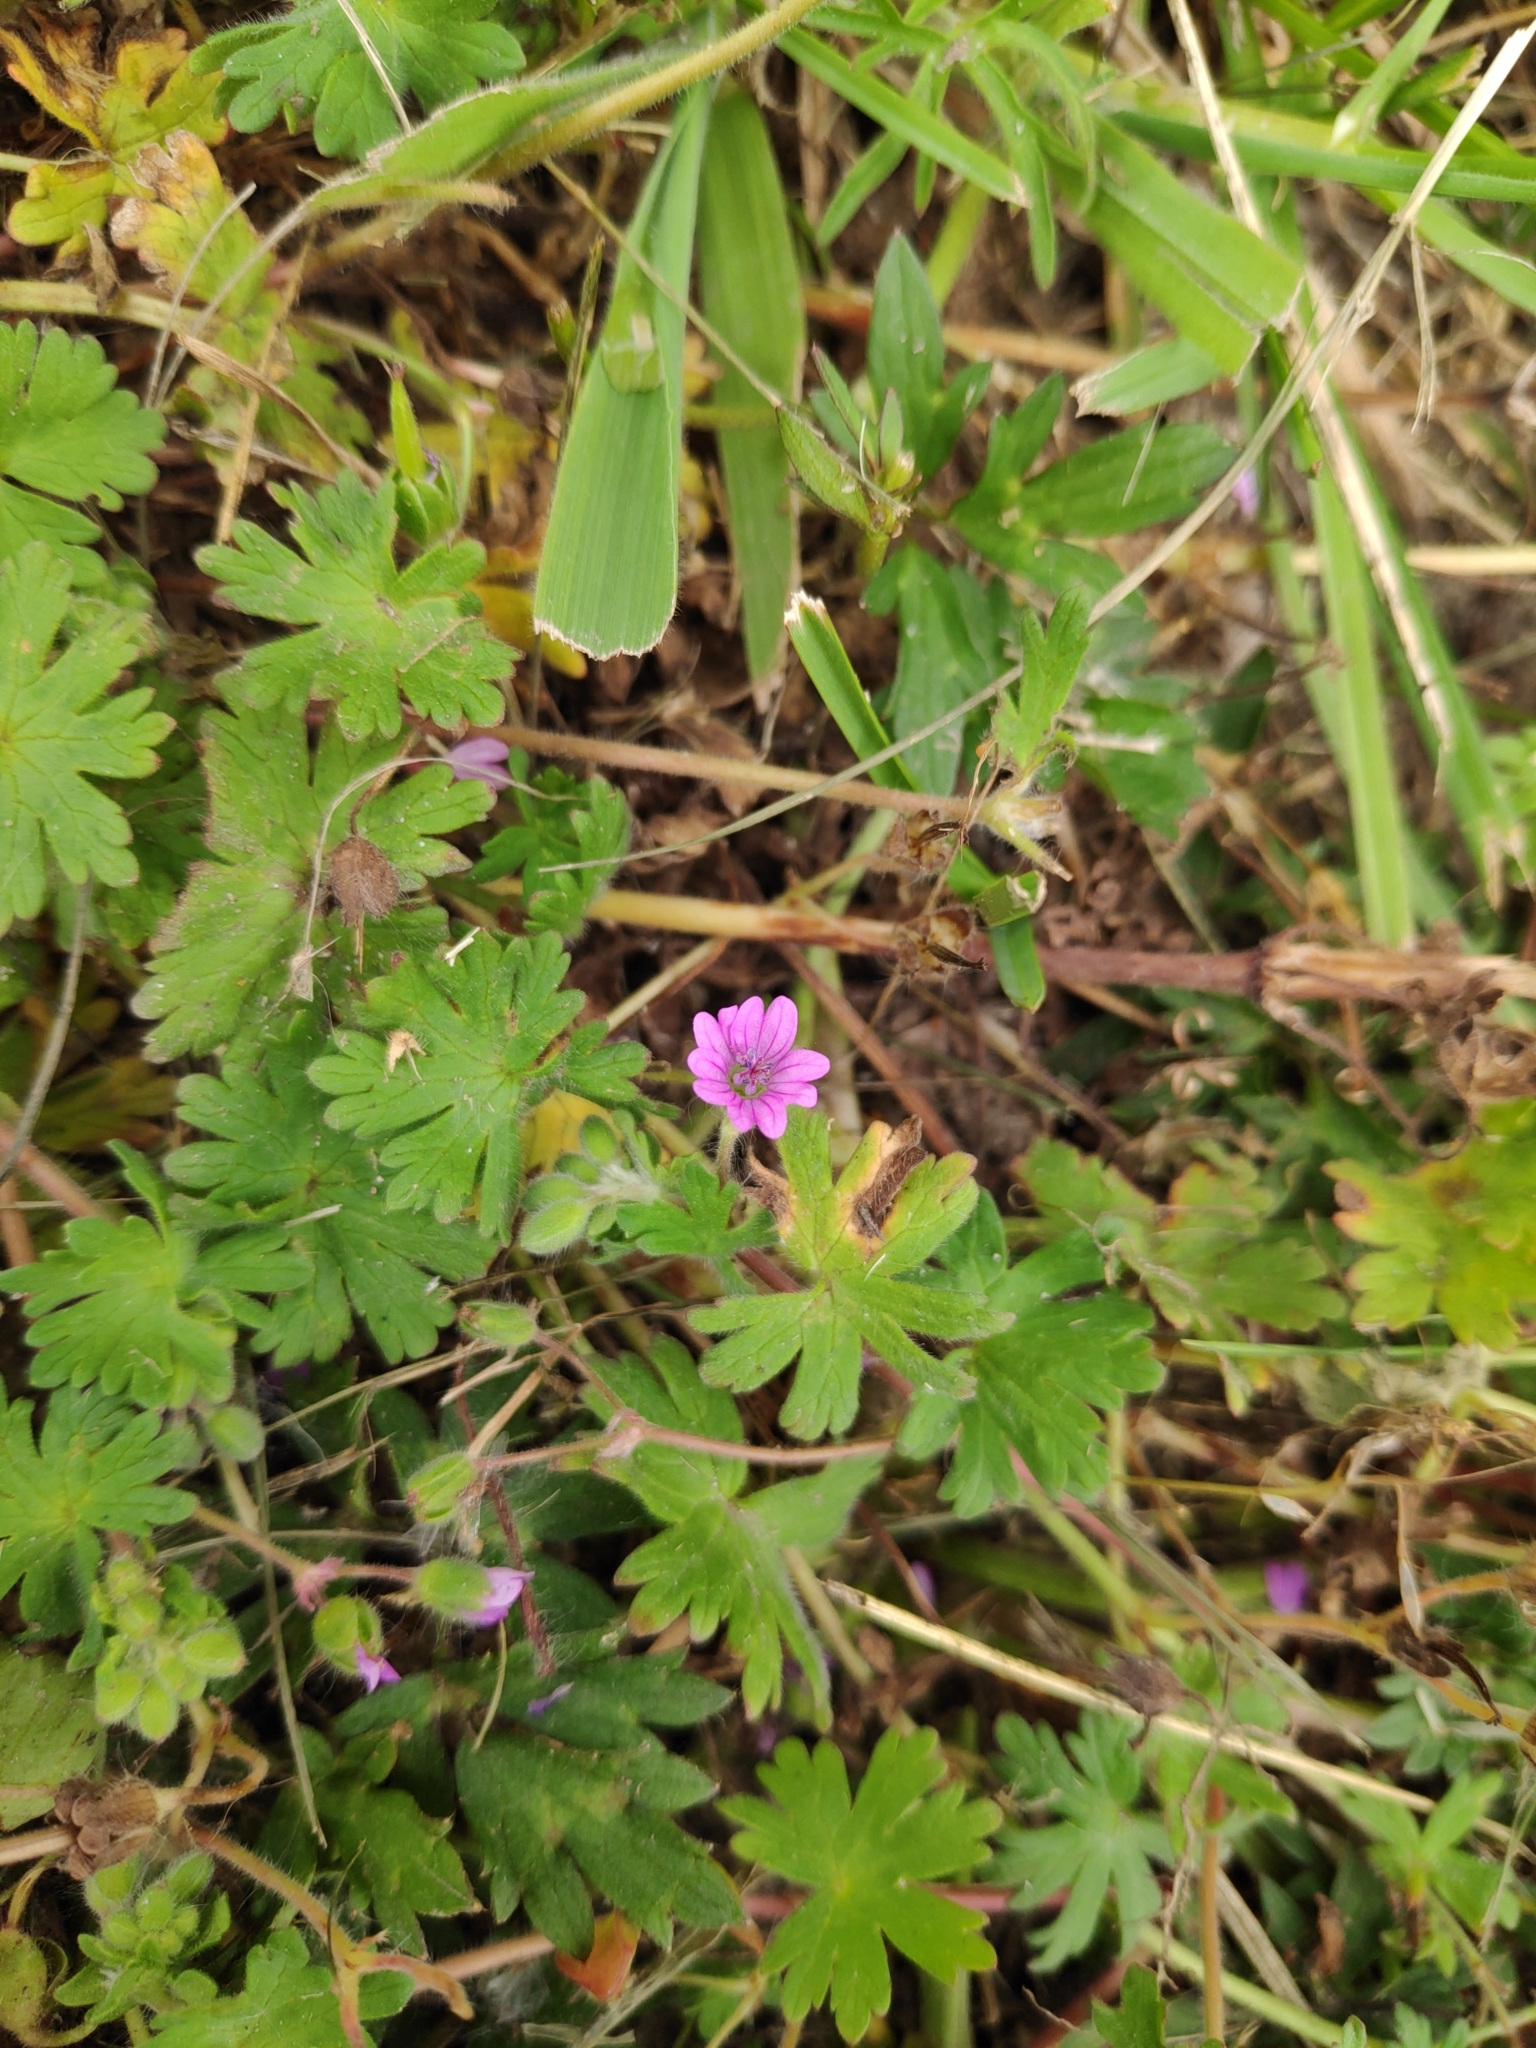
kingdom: Plantae
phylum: Tracheophyta
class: Magnoliopsida
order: Geraniales
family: Geraniaceae
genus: Geranium
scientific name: Geranium molle
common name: Dove's-foot crane's-bill
